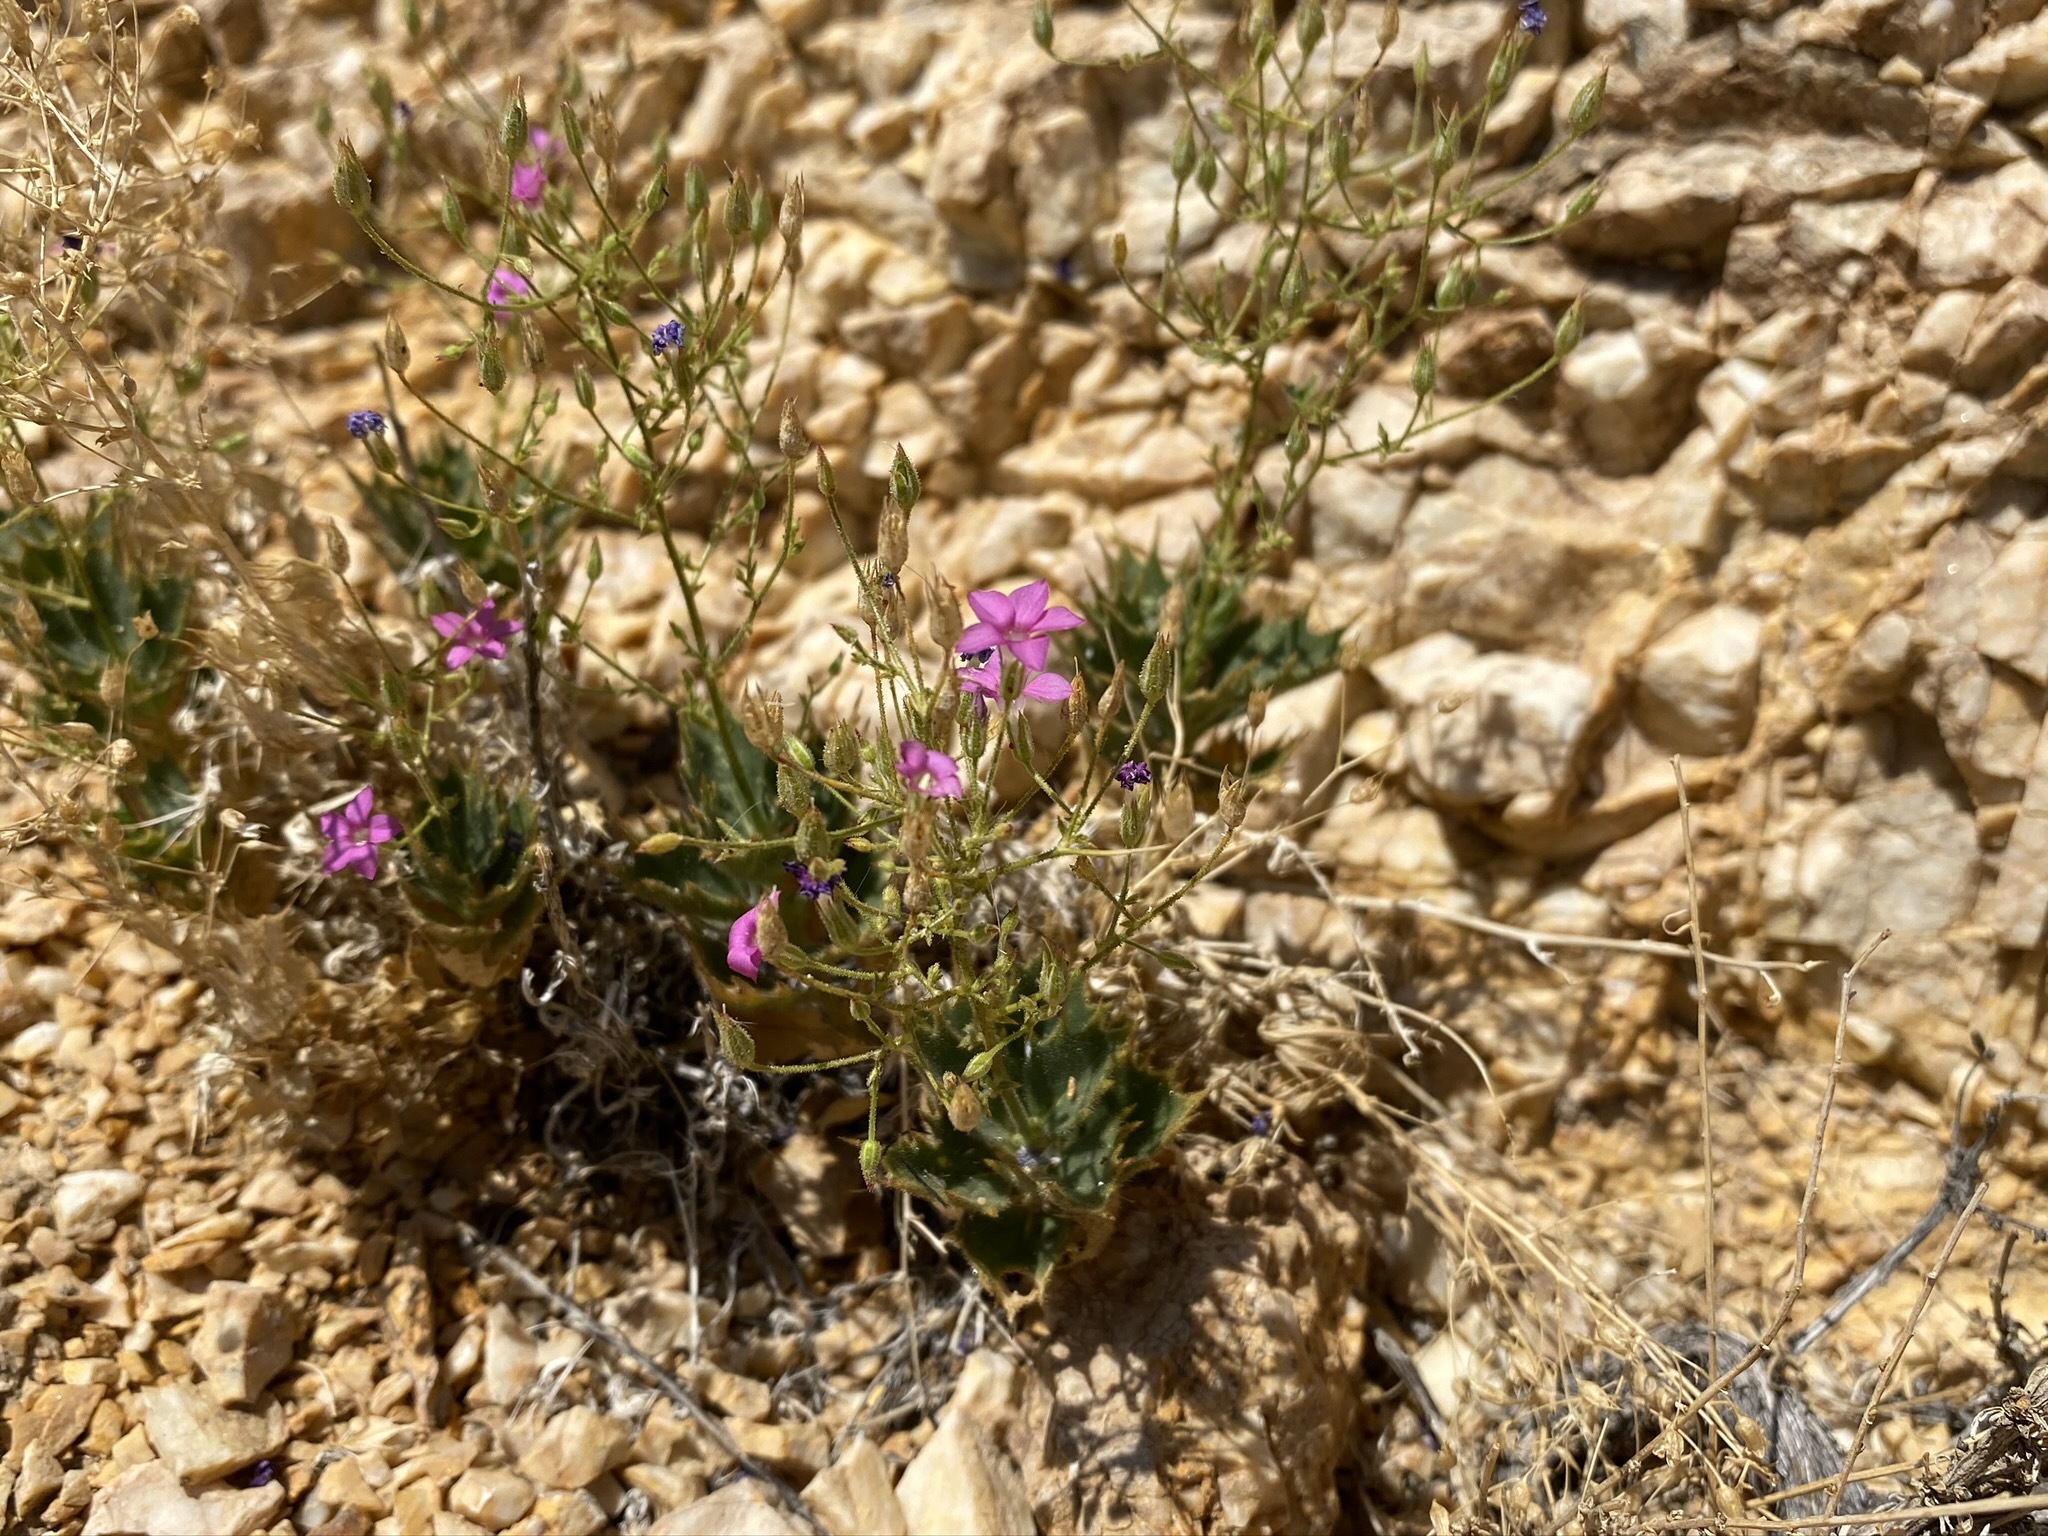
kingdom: Plantae
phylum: Tracheophyta
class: Magnoliopsida
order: Ericales
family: Polemoniaceae
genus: Aliciella
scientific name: Aliciella ripleyi
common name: Ripley's gilia
